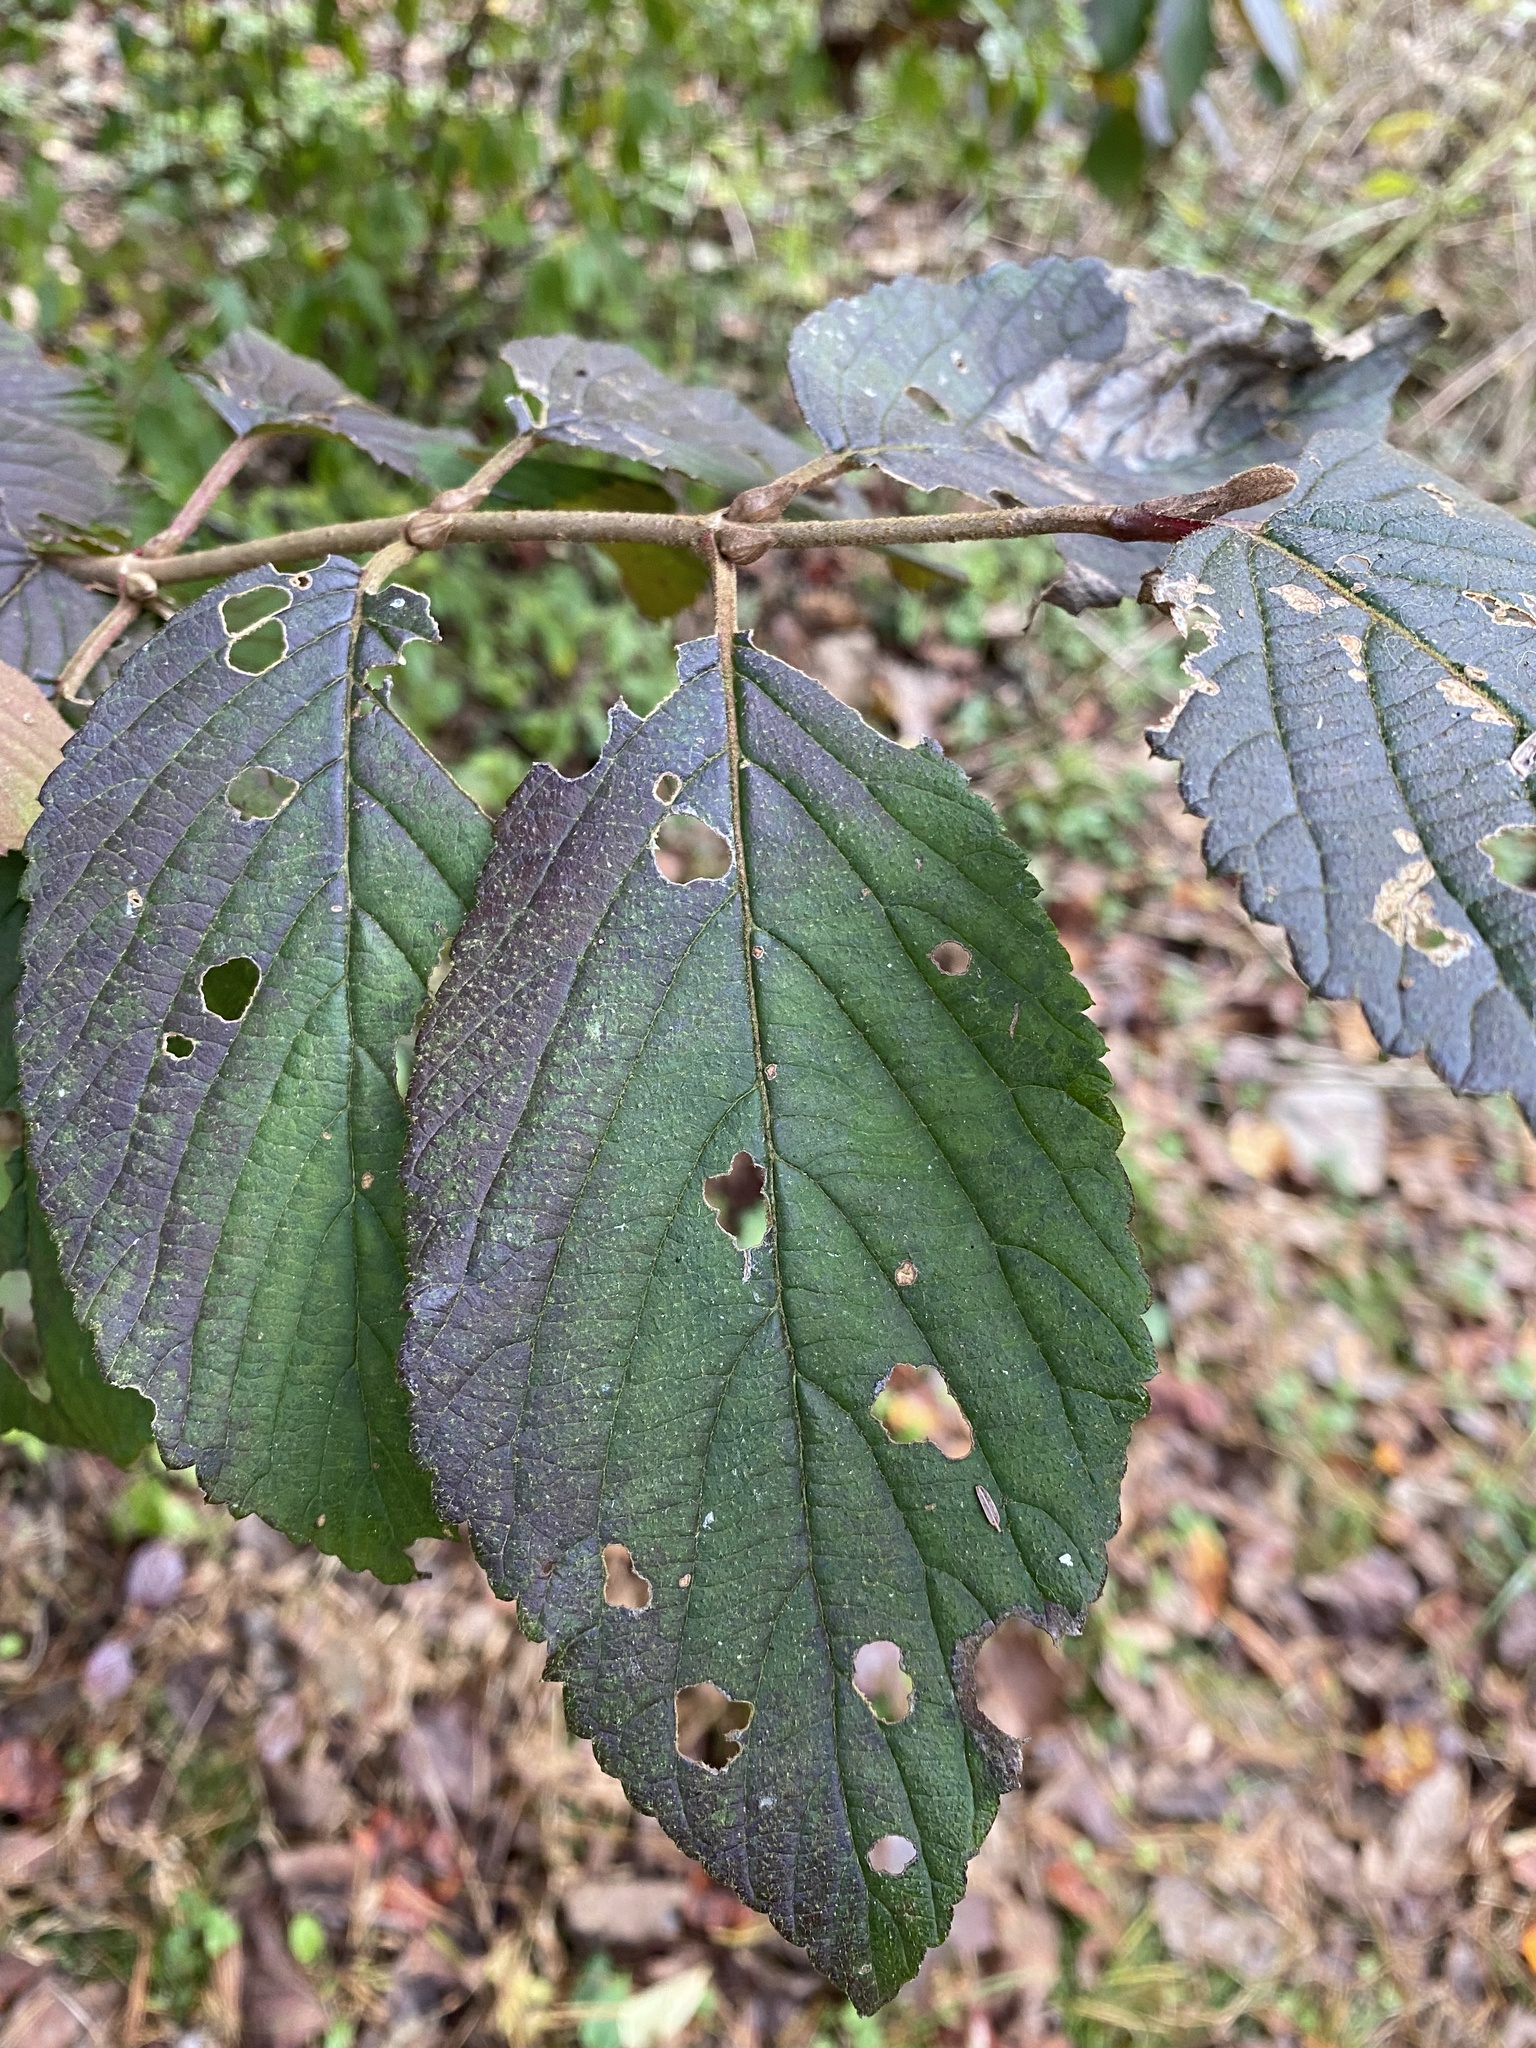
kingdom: Plantae
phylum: Tracheophyta
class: Magnoliopsida
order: Dipsacales
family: Viburnaceae
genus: Viburnum
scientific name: Viburnum plicatum
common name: Japanese snowball
